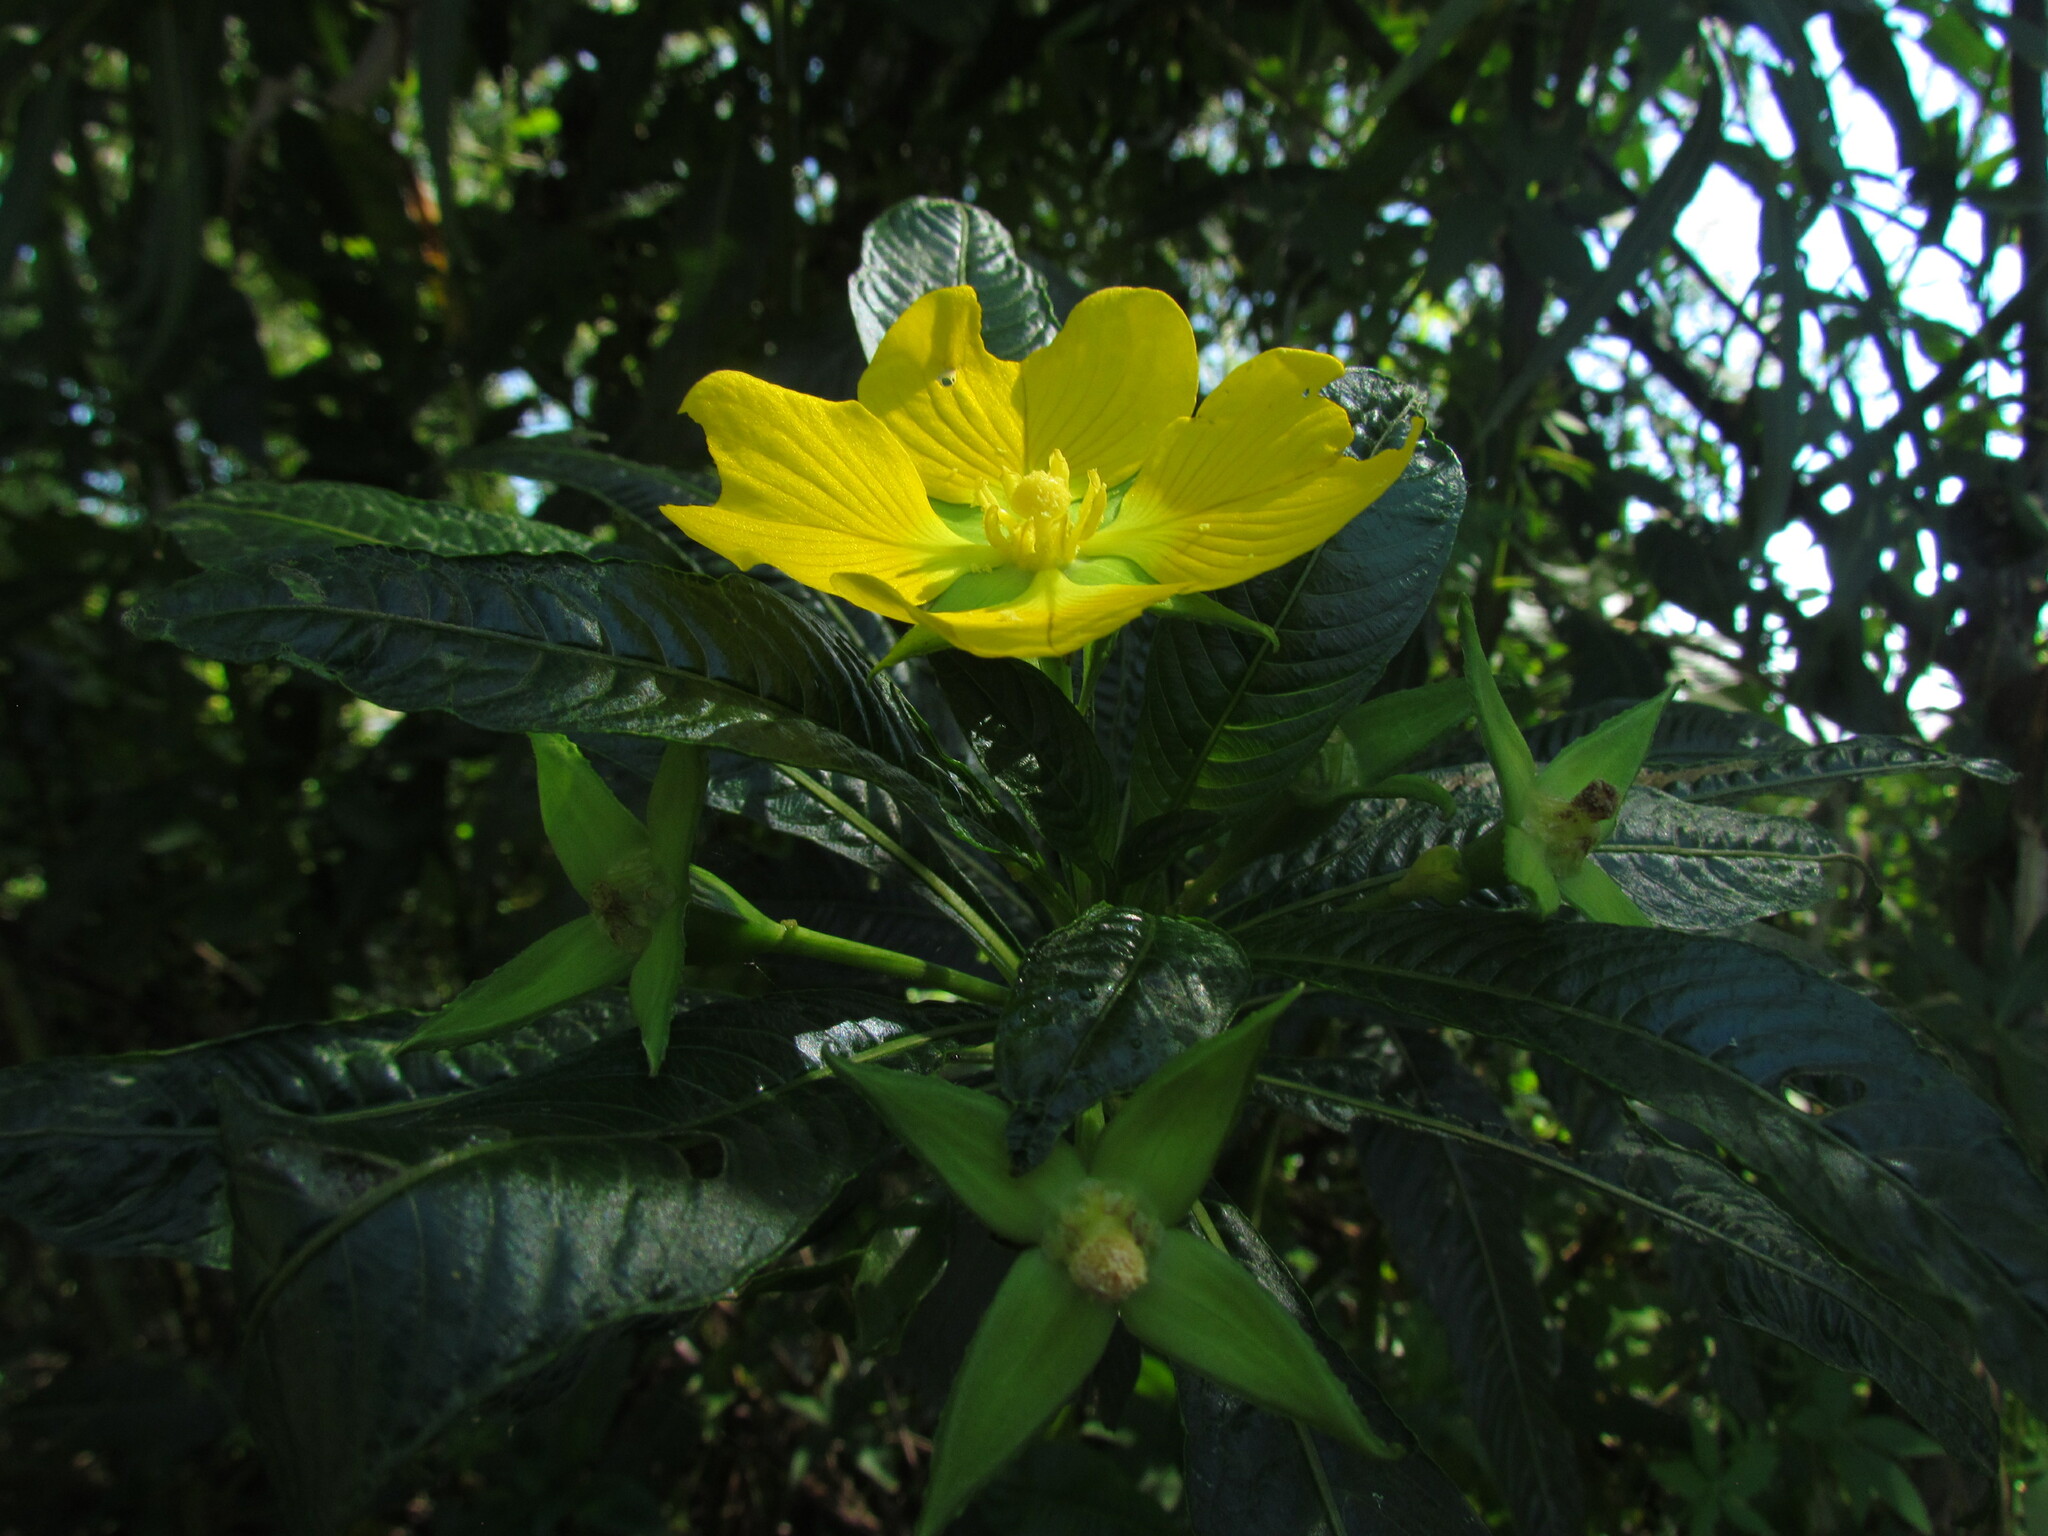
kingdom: Plantae
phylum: Tracheophyta
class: Magnoliopsida
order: Myrtales
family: Onagraceae
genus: Ludwigia
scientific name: Ludwigia elegans
